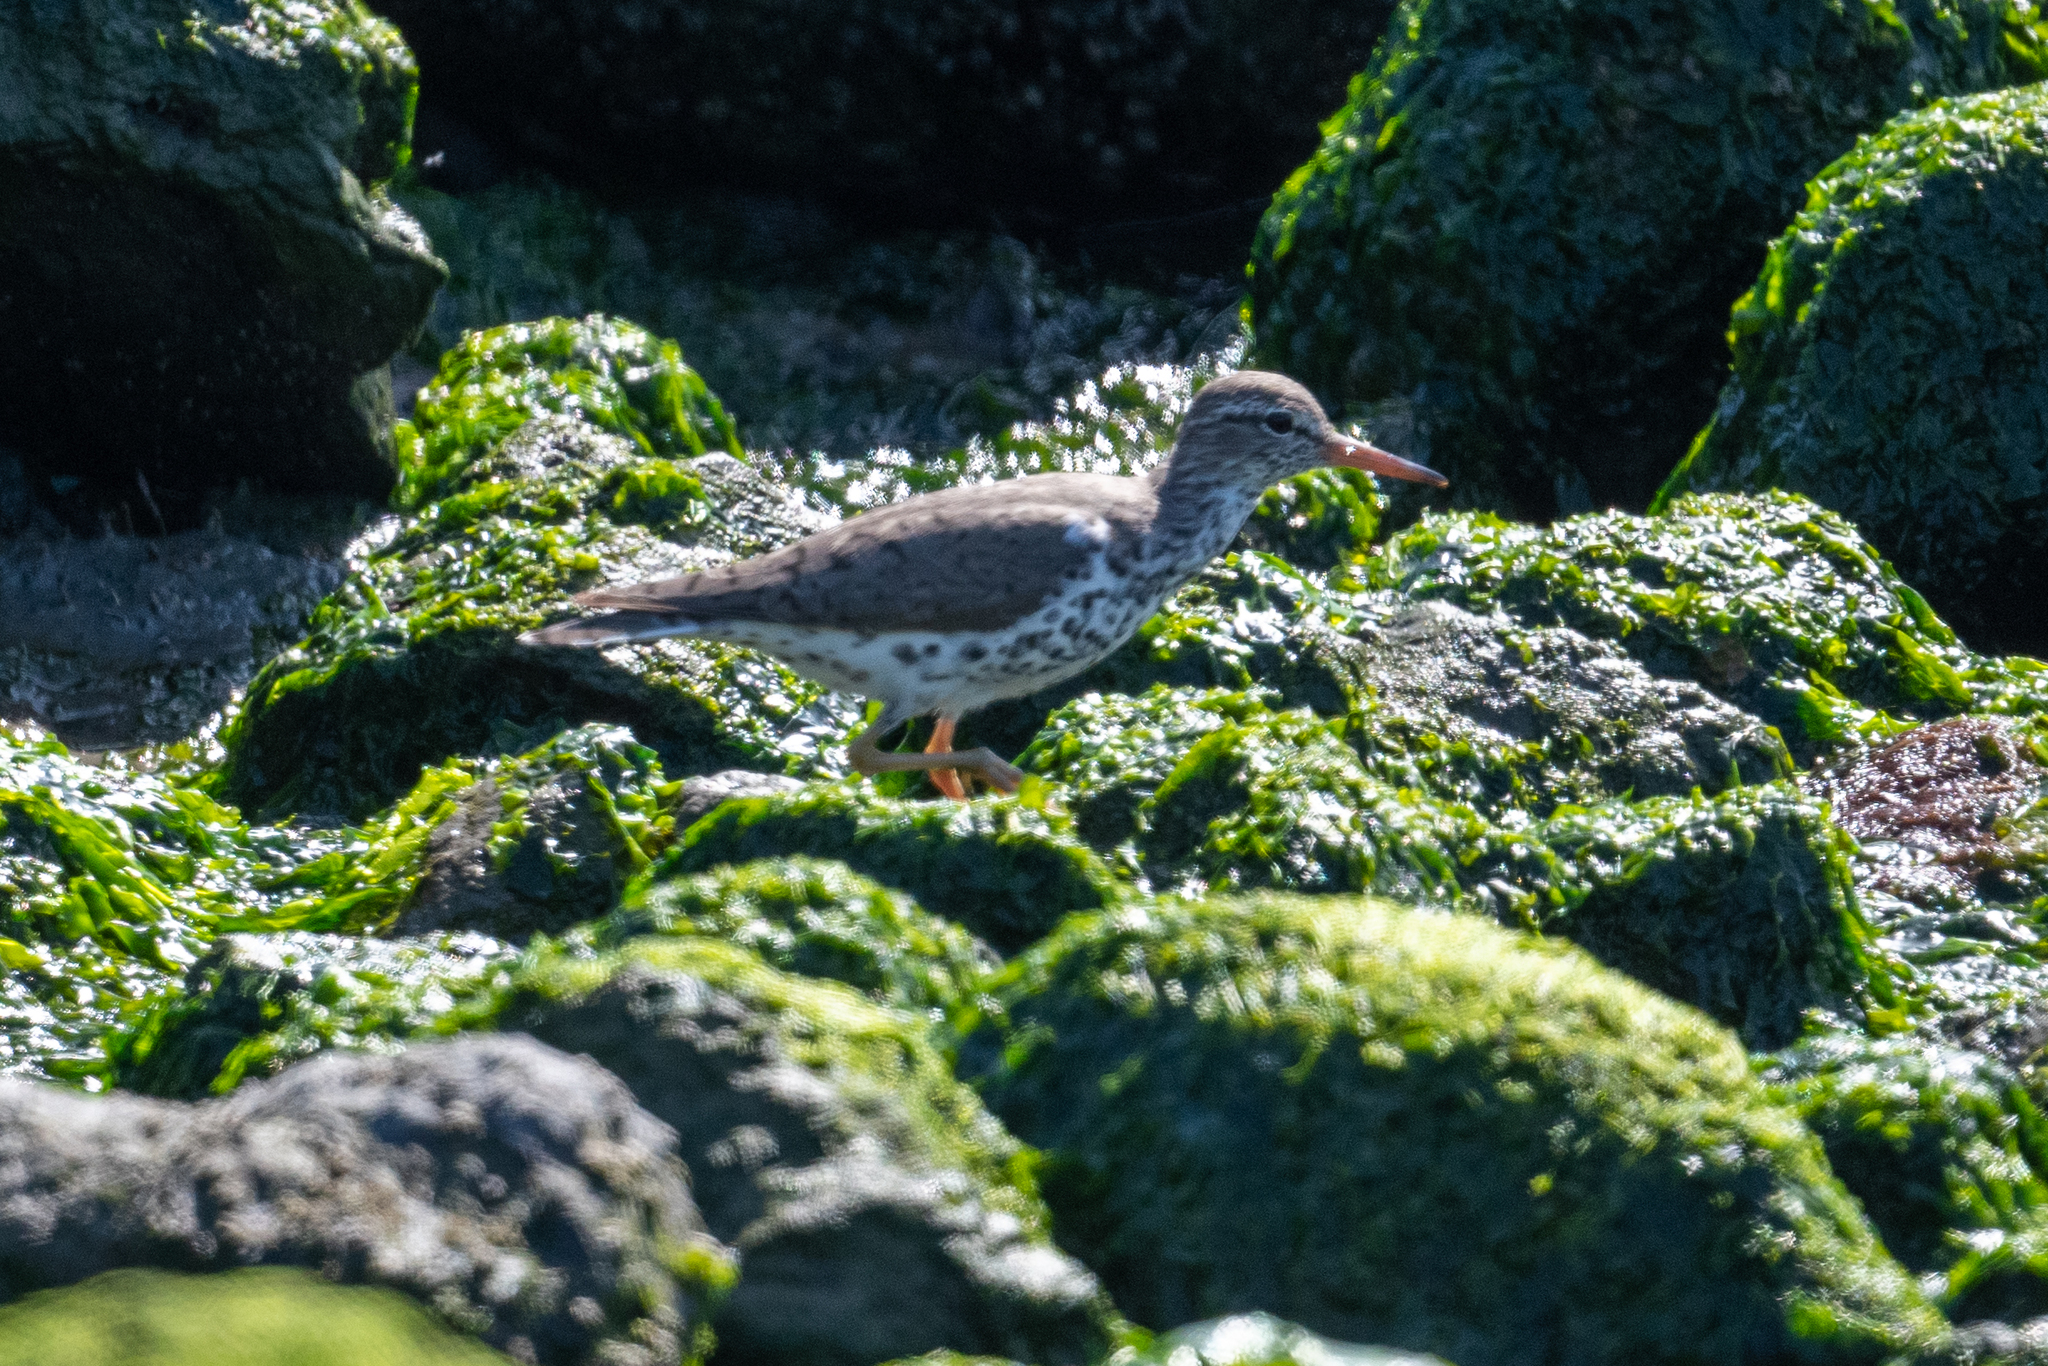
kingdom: Animalia
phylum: Chordata
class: Aves
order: Charadriiformes
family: Scolopacidae
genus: Actitis
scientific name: Actitis macularius
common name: Spotted sandpiper
